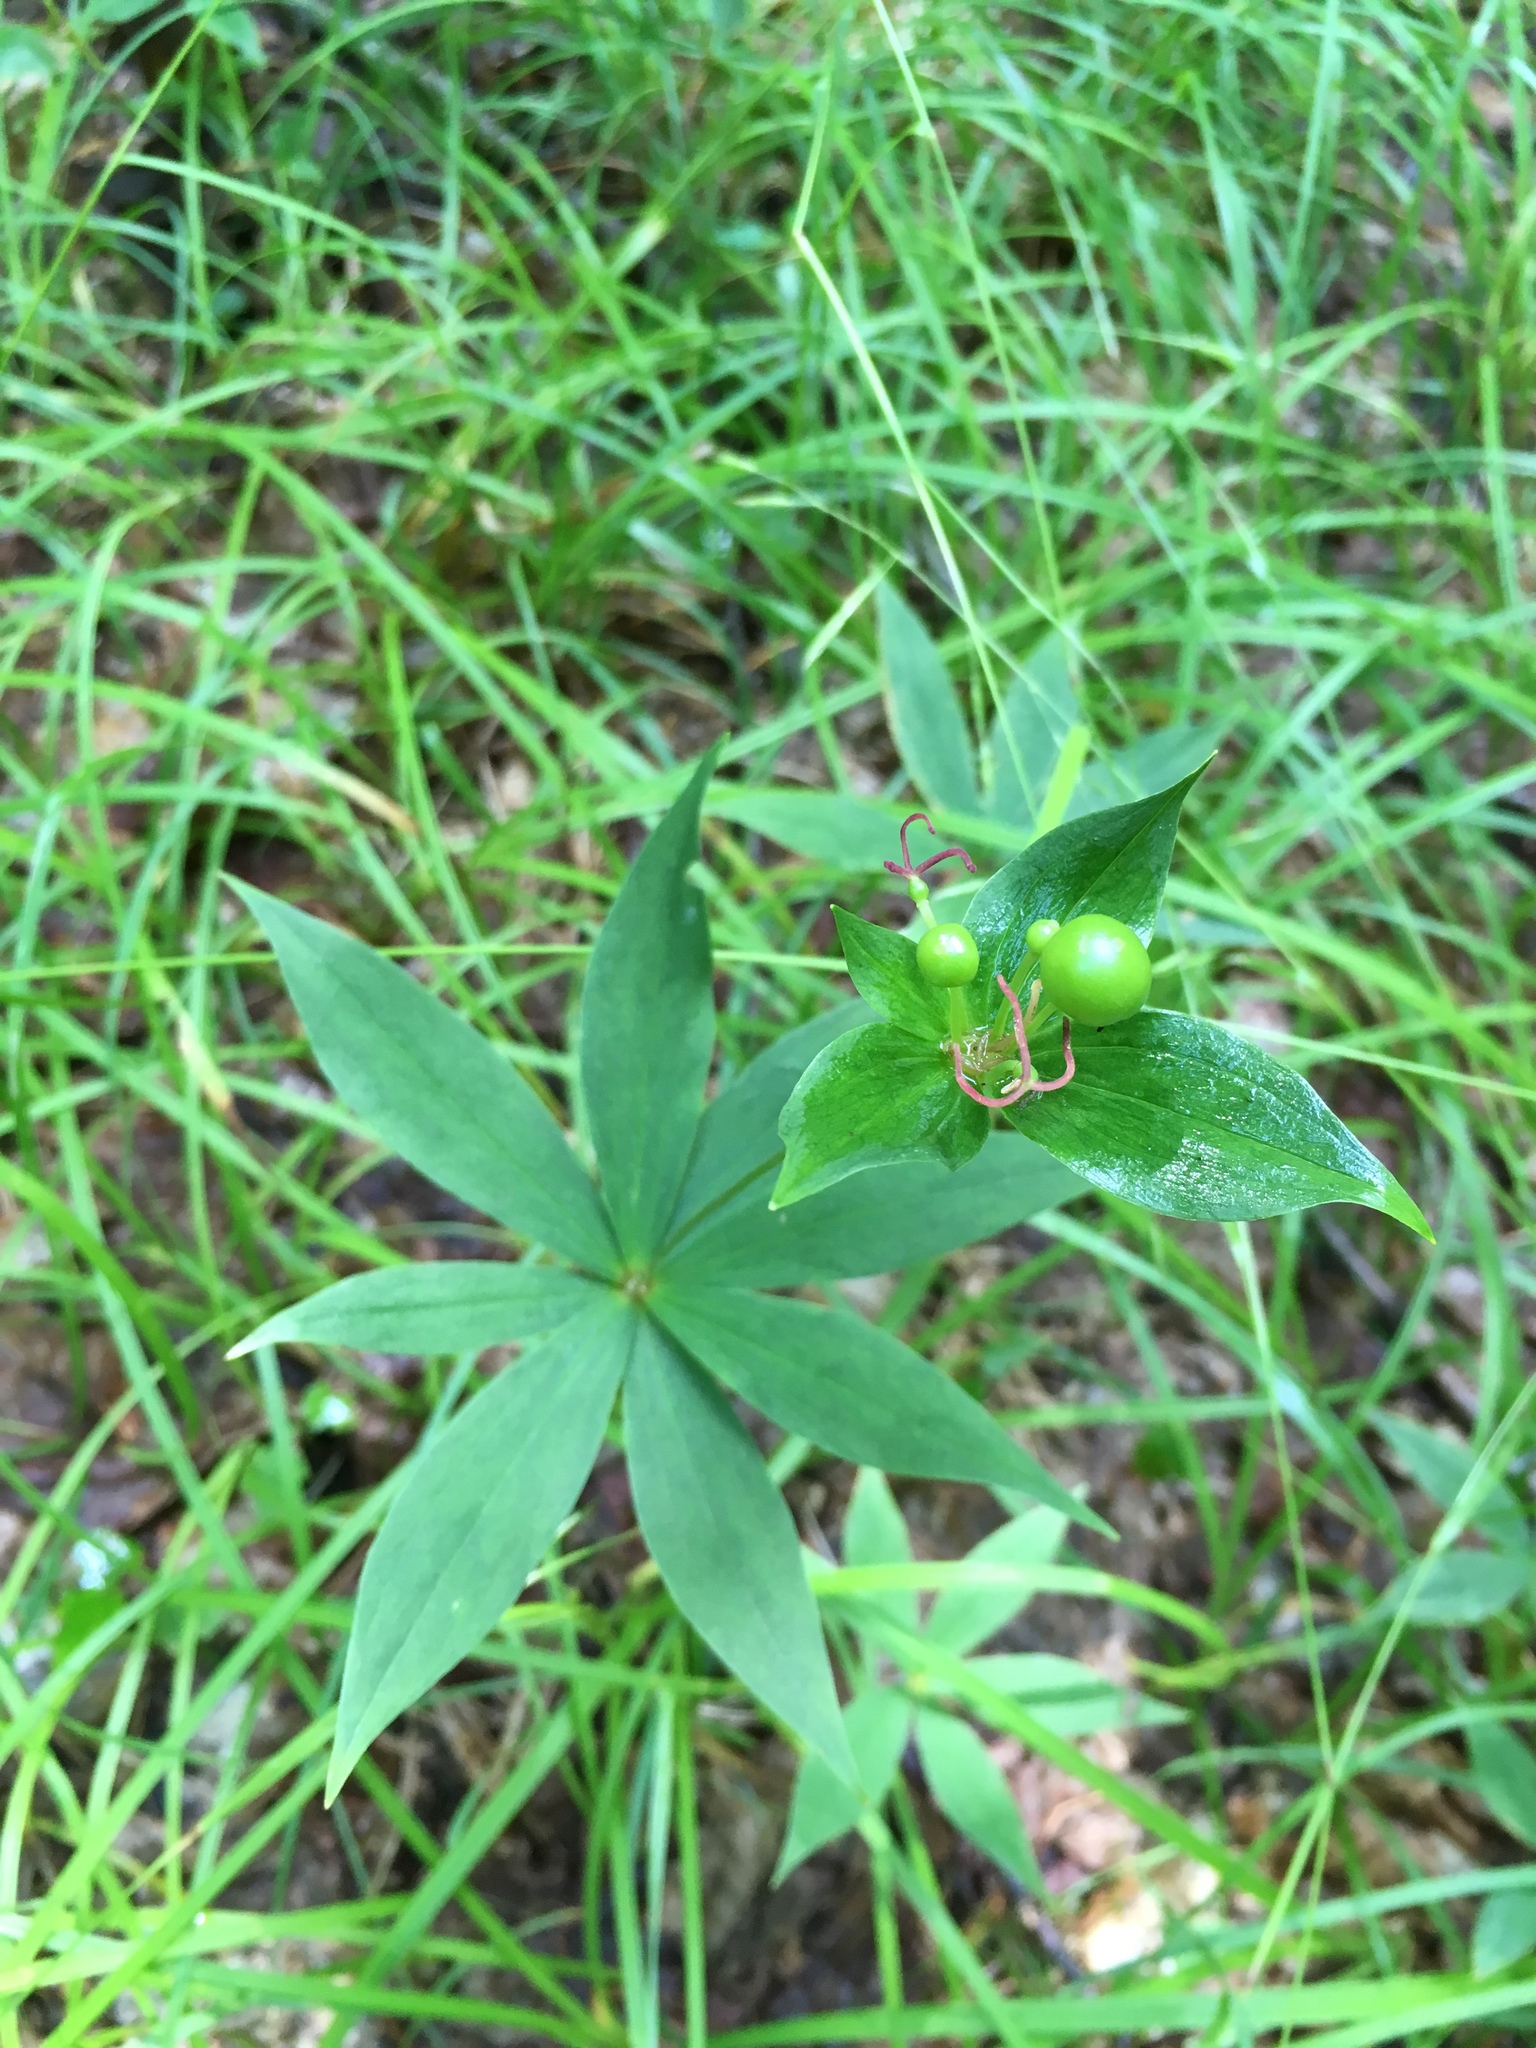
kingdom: Plantae
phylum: Tracheophyta
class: Liliopsida
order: Liliales
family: Liliaceae
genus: Medeola
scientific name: Medeola virginiana
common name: Indian cucumber-root
